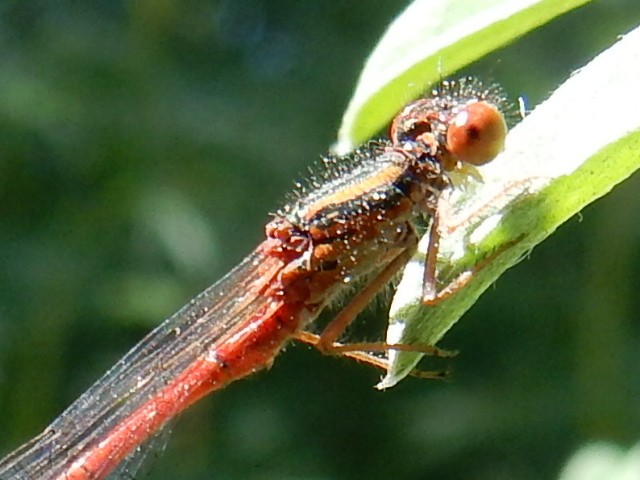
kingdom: Animalia
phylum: Arthropoda
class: Insecta
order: Odonata
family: Coenagrionidae
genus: Xanthocnemis
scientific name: Xanthocnemis zealandica
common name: Common redcoat damselfly
